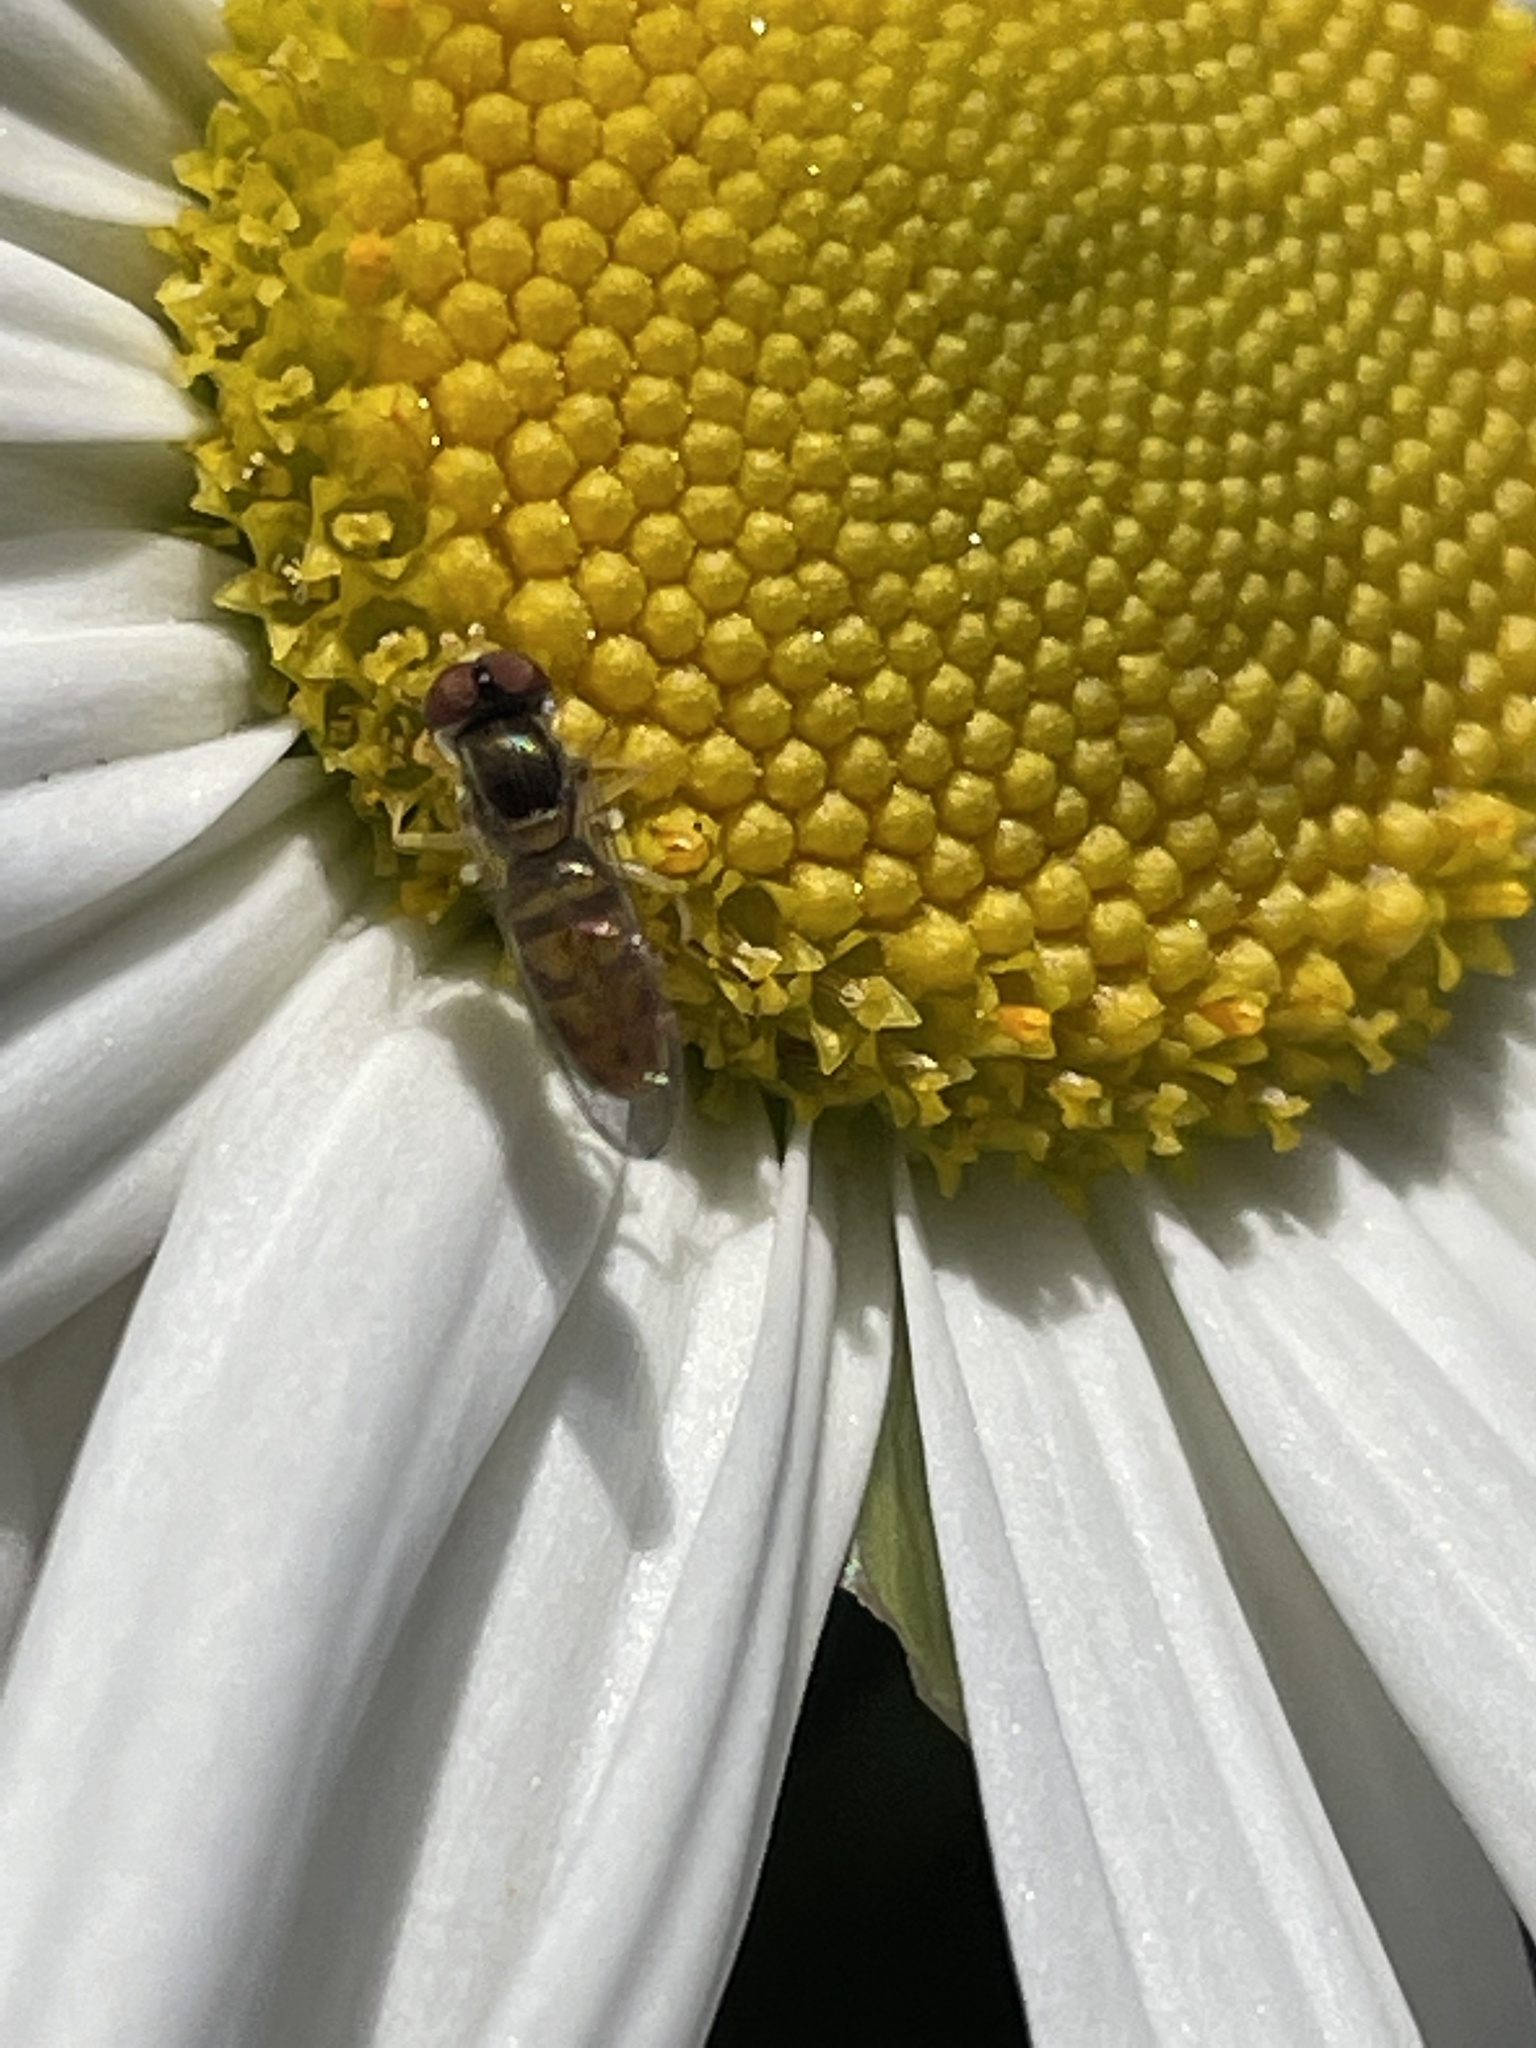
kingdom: Animalia
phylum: Arthropoda
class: Insecta
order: Diptera
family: Syrphidae
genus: Toxomerus
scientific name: Toxomerus marginatus
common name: Syrphid fly
